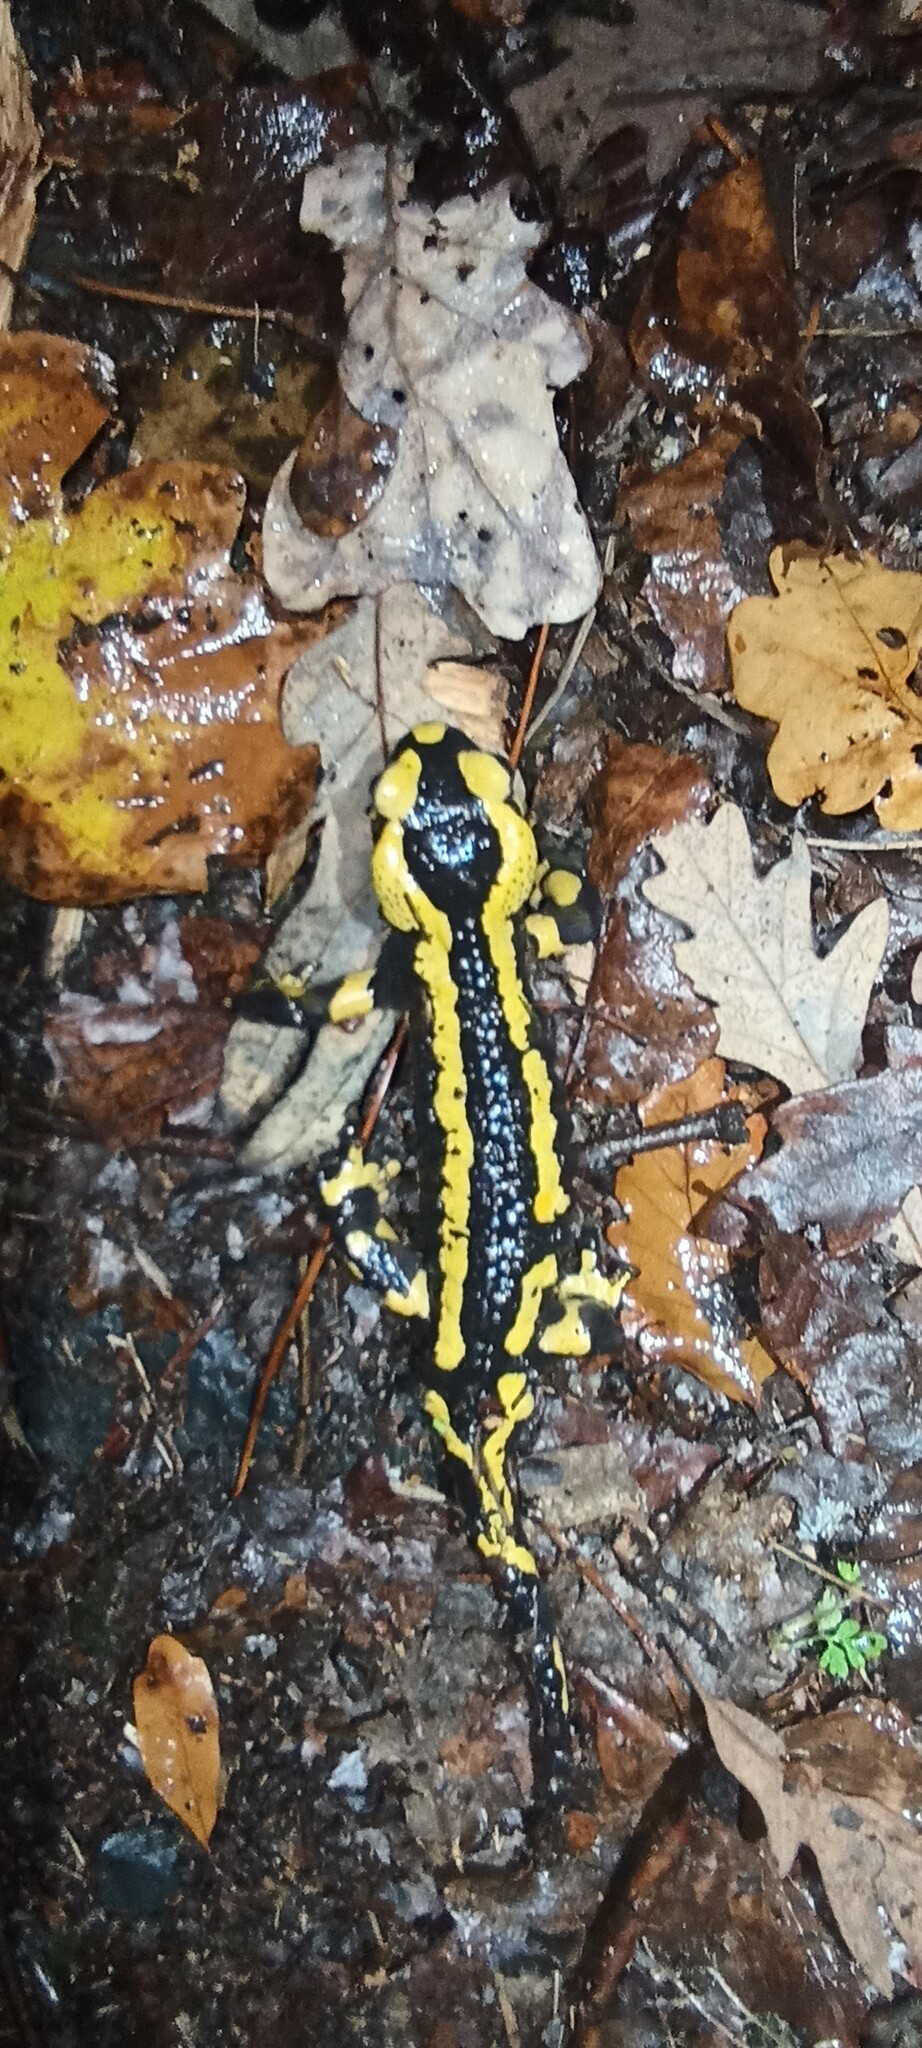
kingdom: Animalia
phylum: Chordata
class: Amphibia
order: Caudata
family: Salamandridae
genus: Salamandra
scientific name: Salamandra salamandra
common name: Fire salamander
